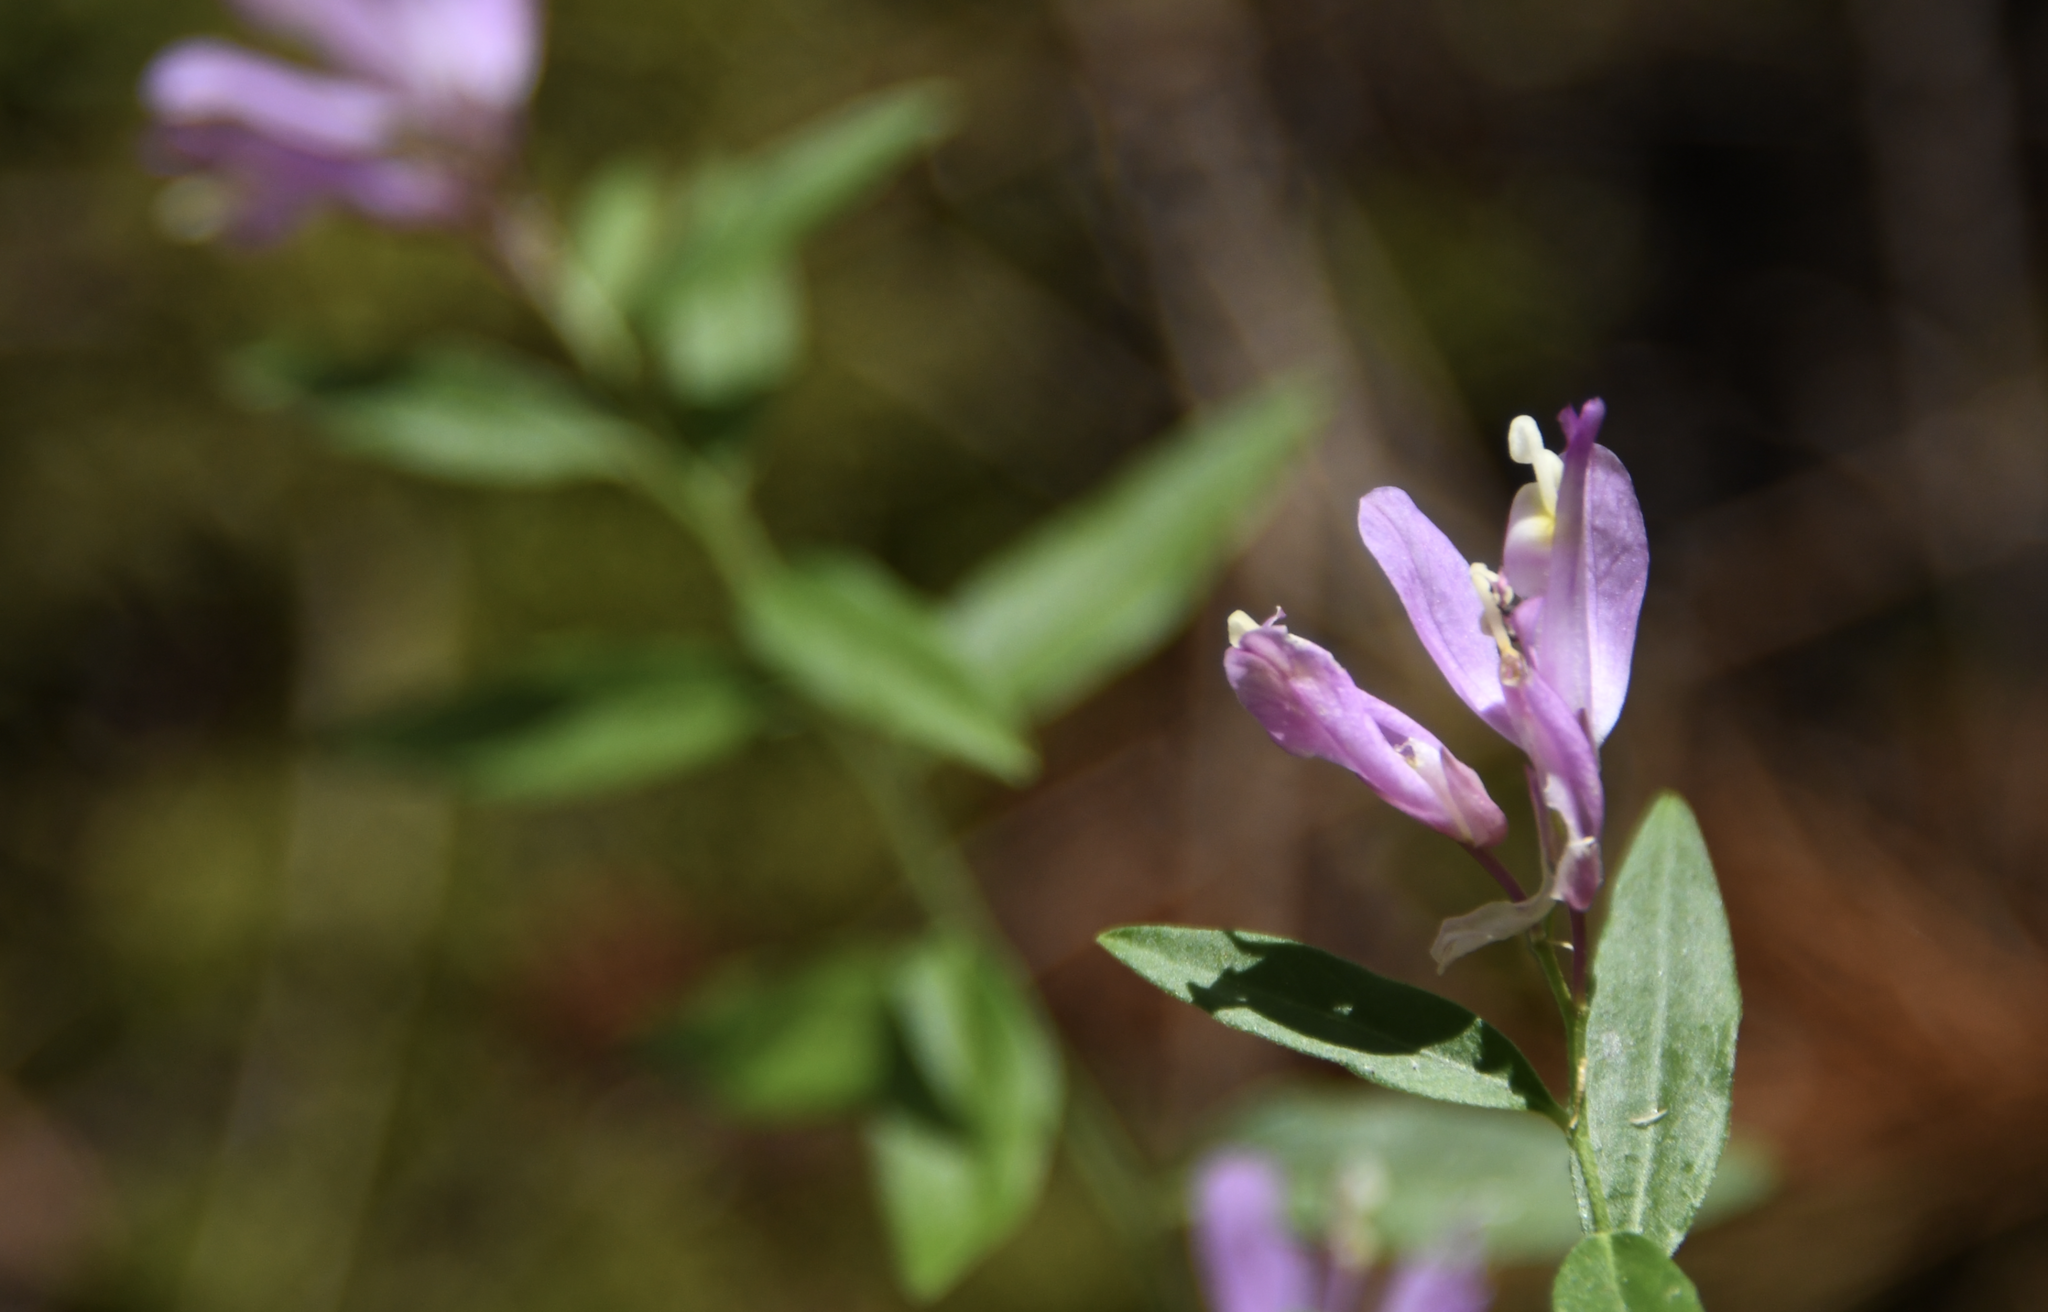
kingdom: Plantae
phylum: Tracheophyta
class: Magnoliopsida
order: Fabales
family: Polygalaceae
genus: Rhinotropis
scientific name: Rhinotropis californica
